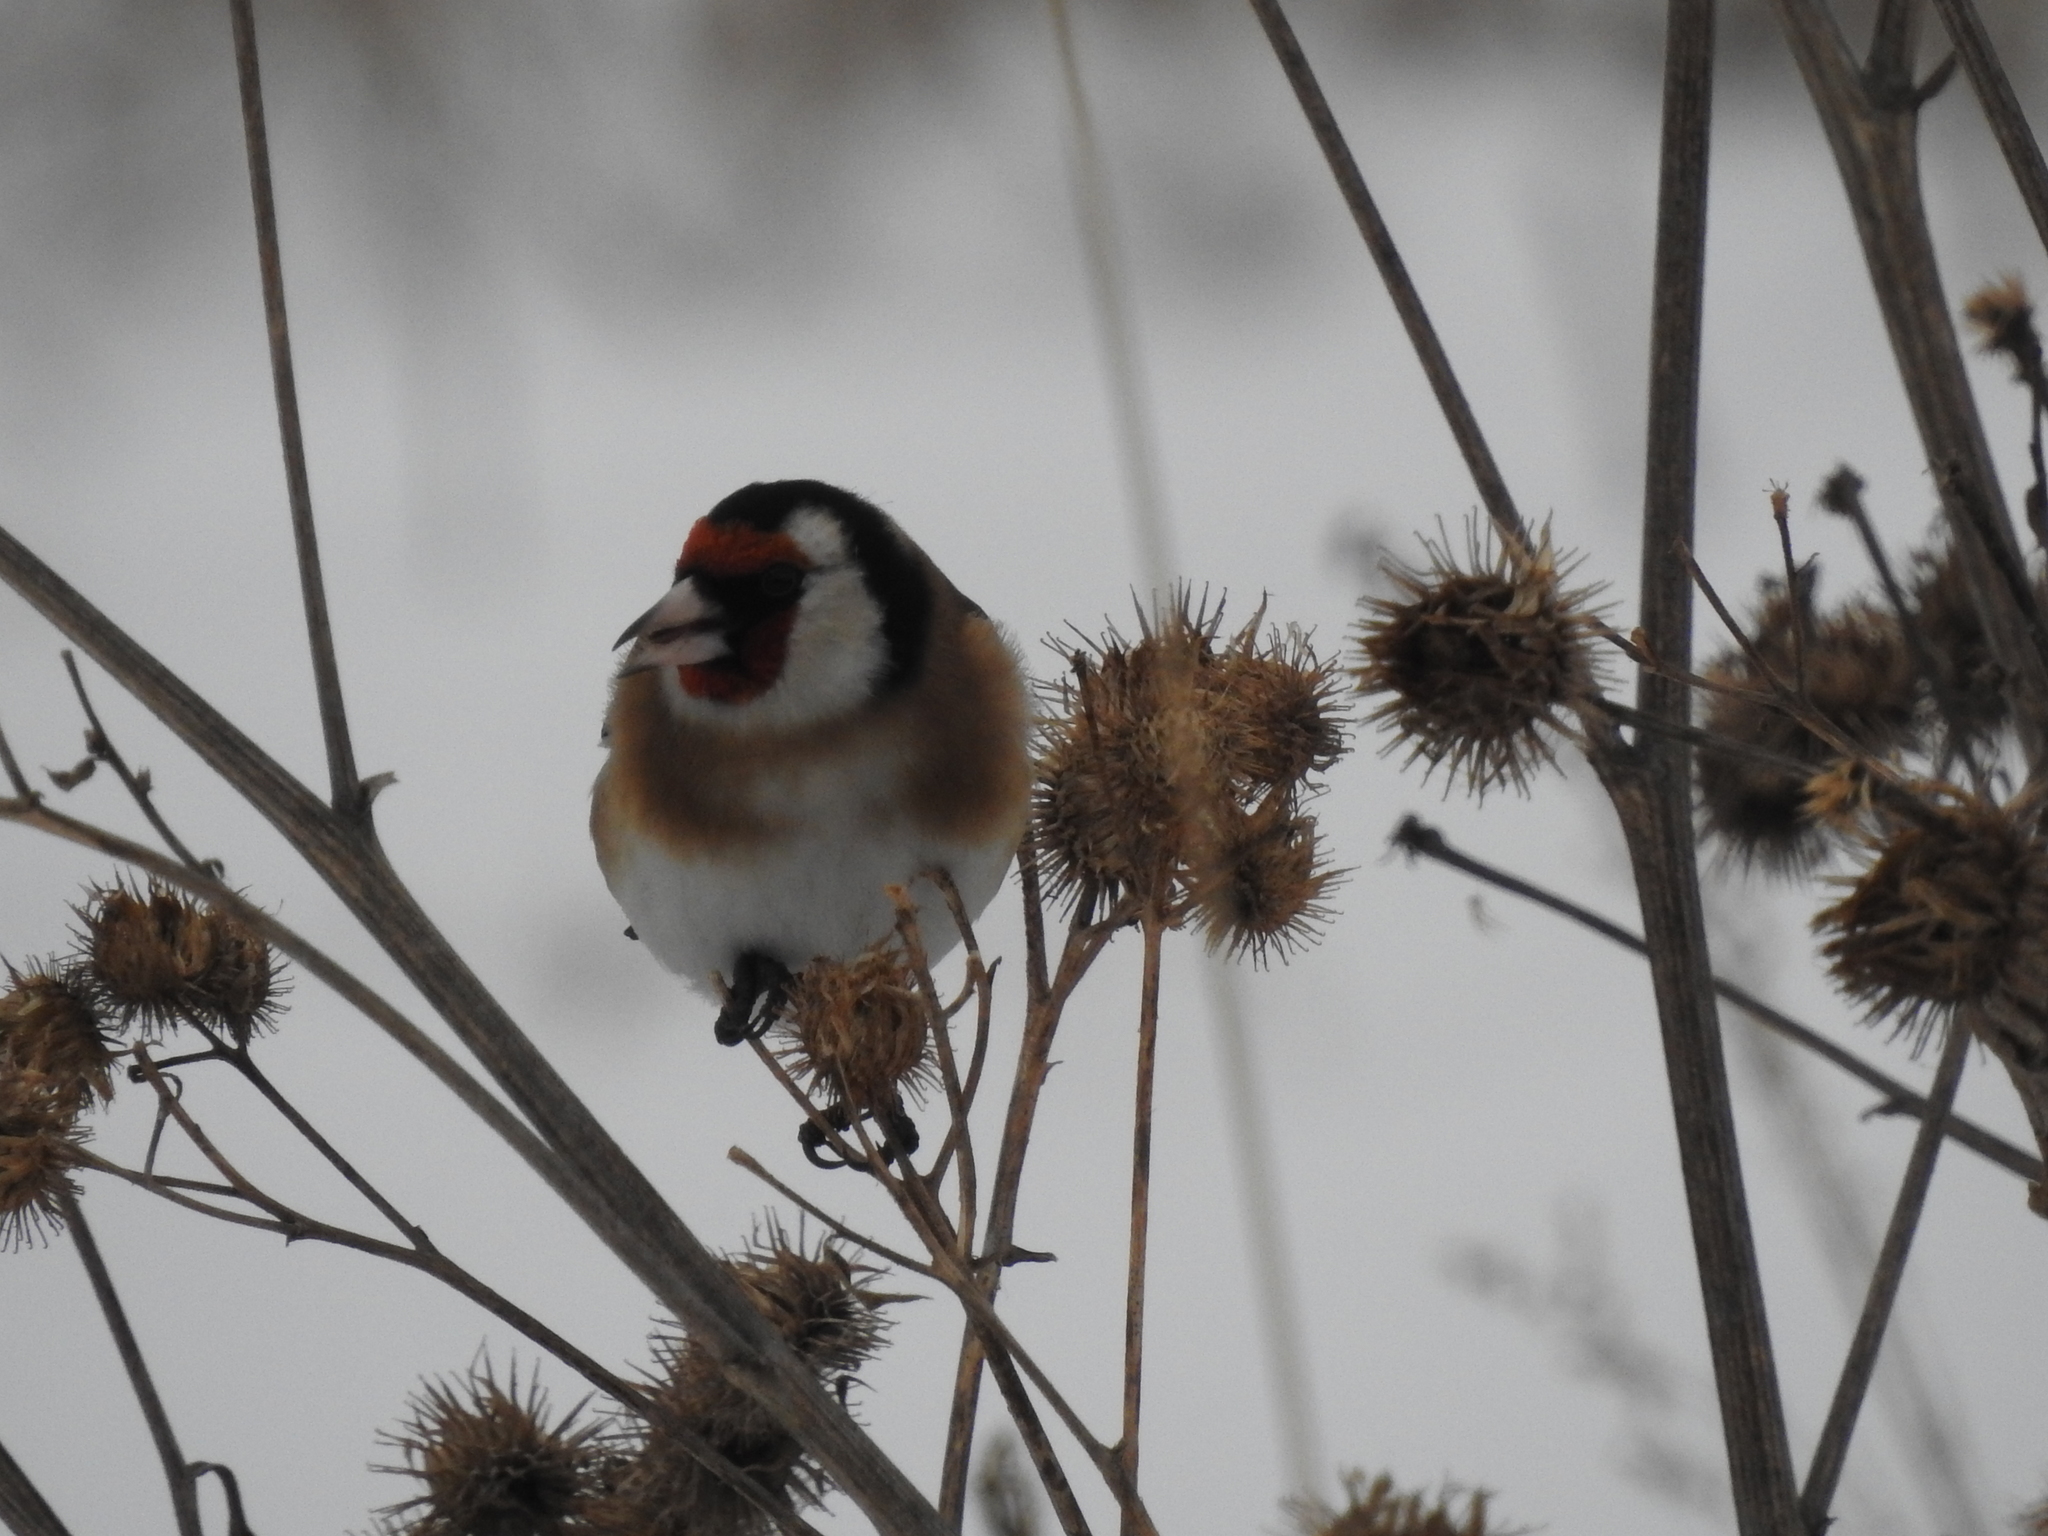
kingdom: Animalia
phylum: Chordata
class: Aves
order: Passeriformes
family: Fringillidae
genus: Carduelis
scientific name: Carduelis carduelis
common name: European goldfinch
